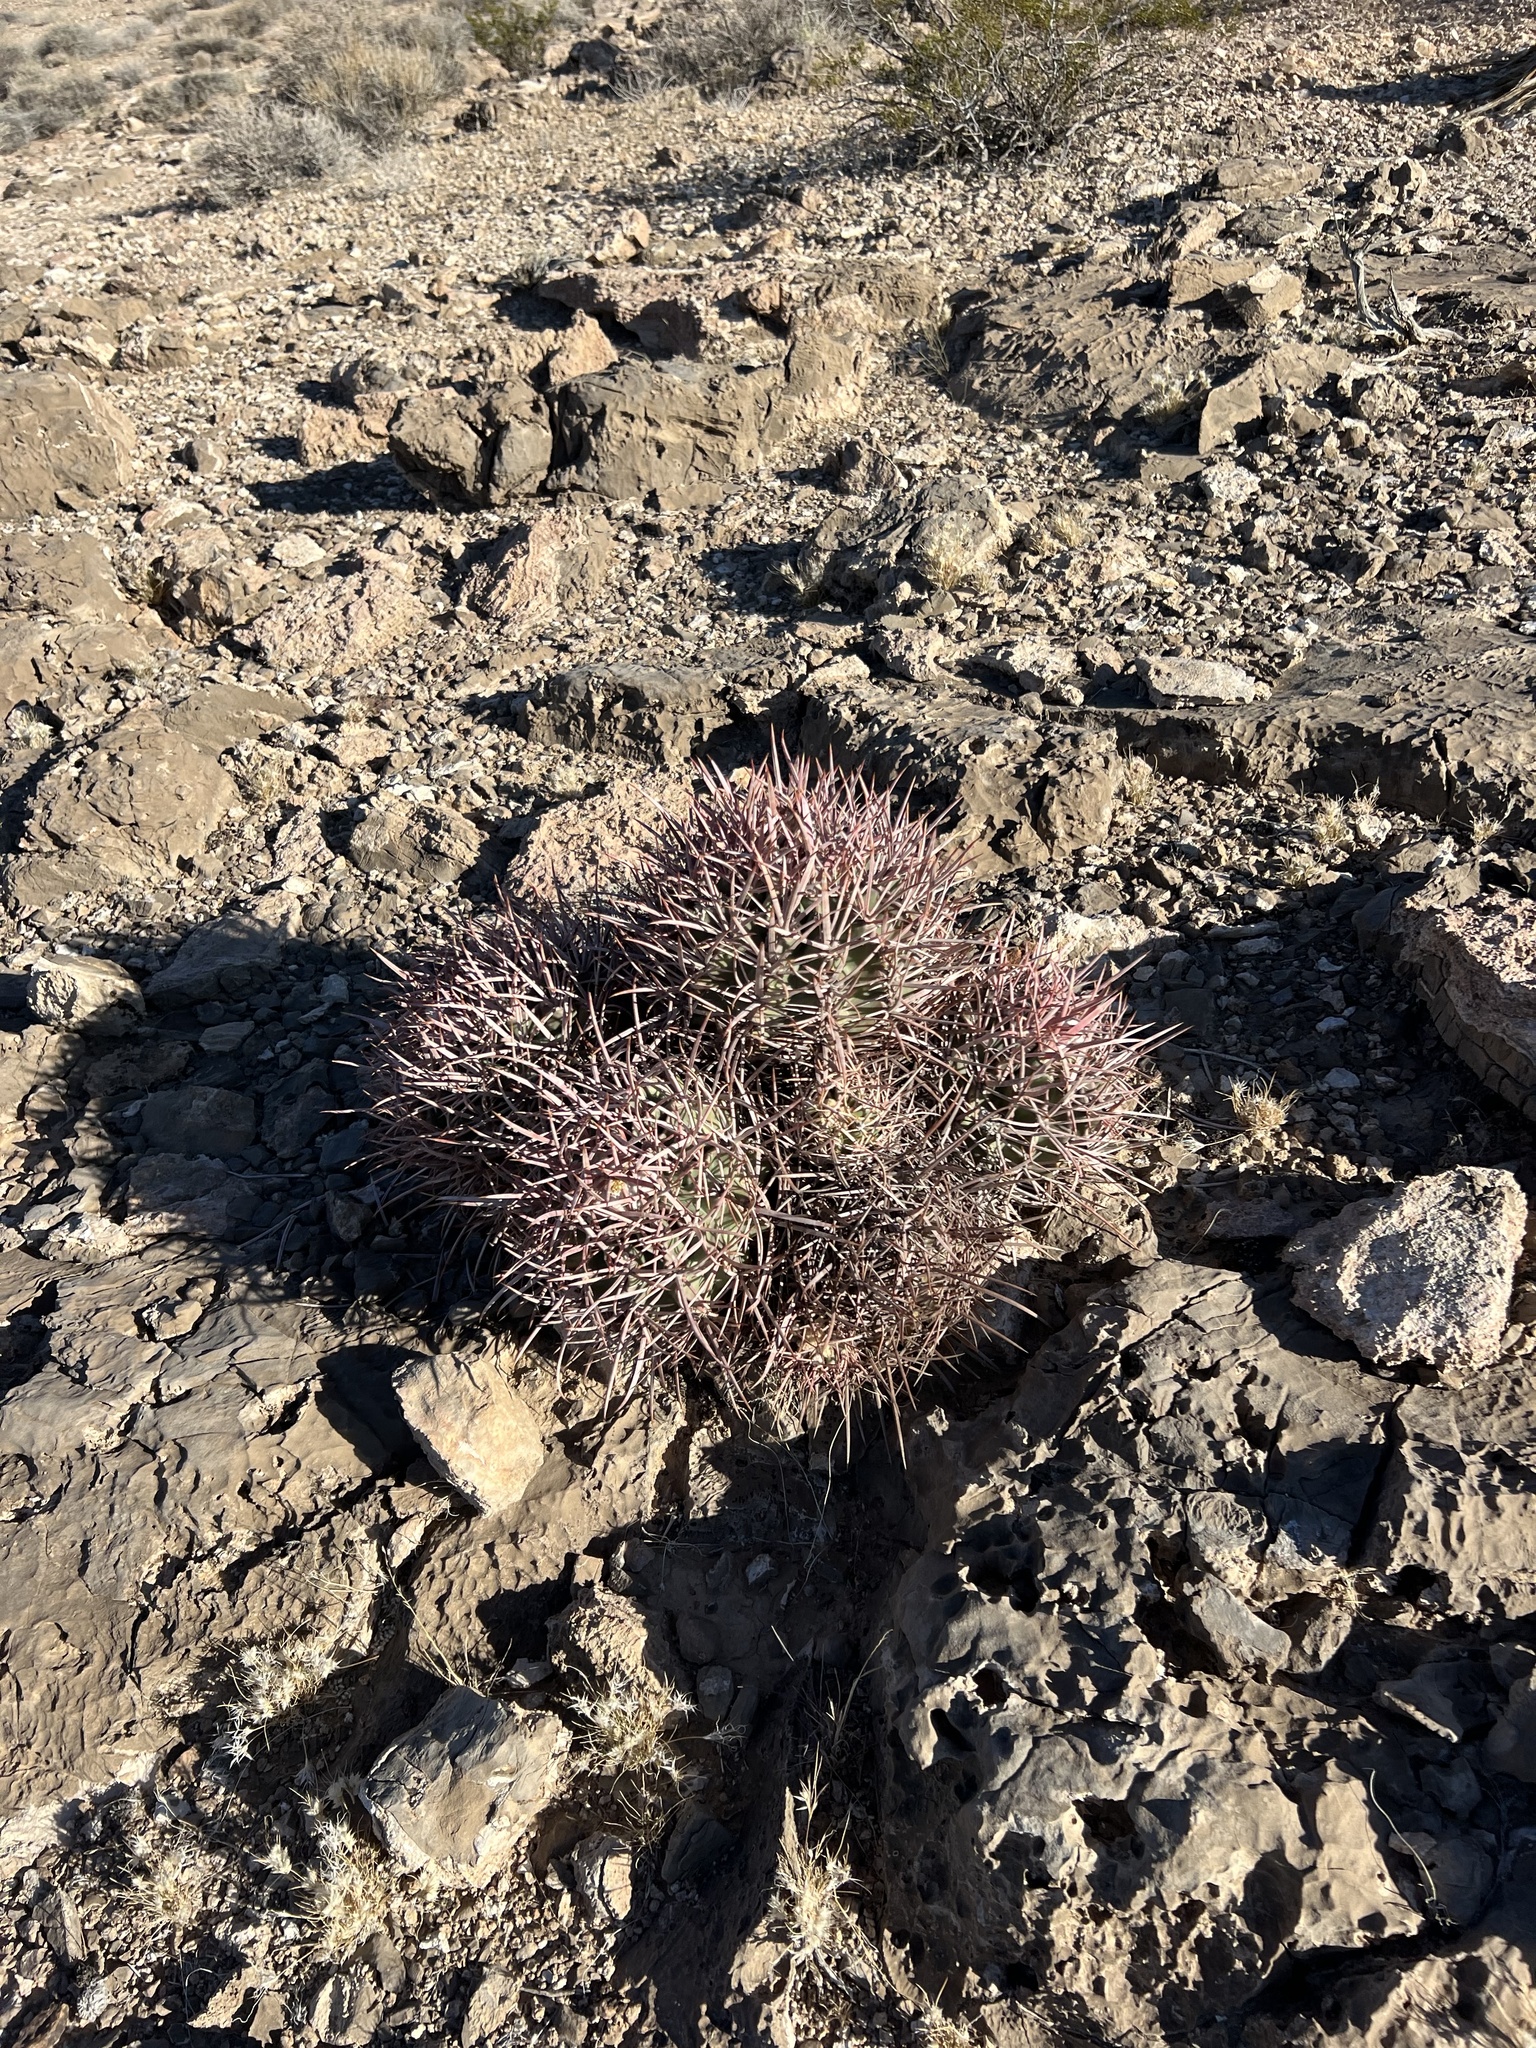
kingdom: Plantae
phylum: Tracheophyta
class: Magnoliopsida
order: Caryophyllales
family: Cactaceae
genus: Echinocactus
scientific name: Echinocactus polycephalus
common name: Cottontop cactus
